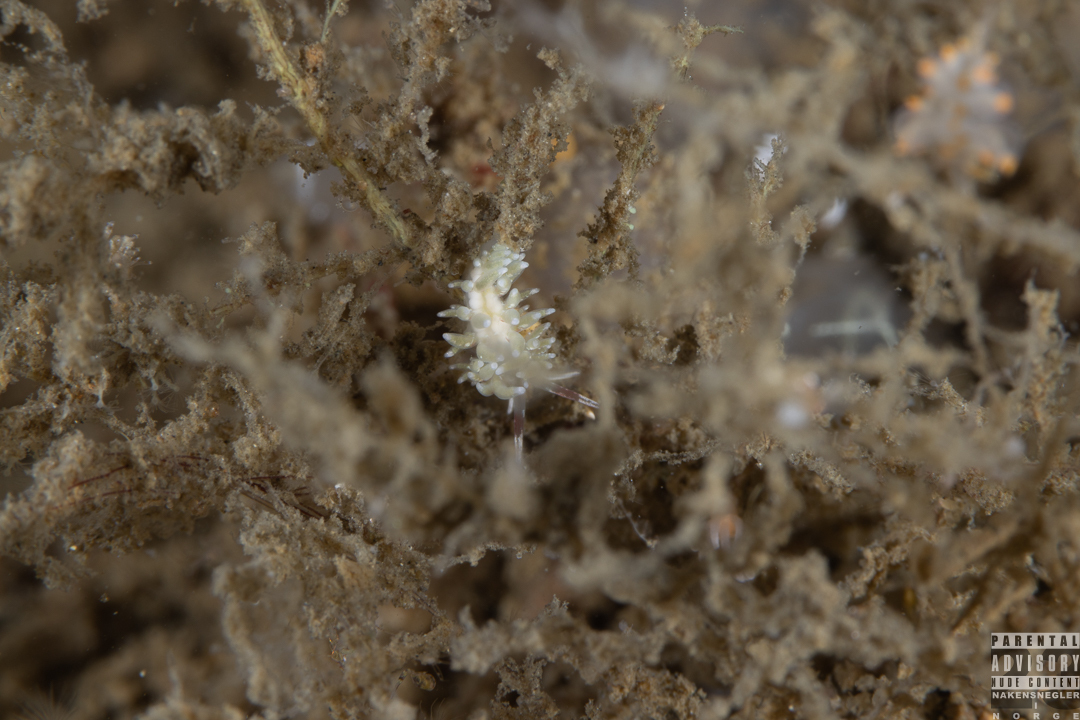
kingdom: Animalia
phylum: Mollusca
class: Gastropoda
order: Nudibranchia
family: Trinchesiidae
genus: Rubramoena
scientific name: Rubramoena rubescens
